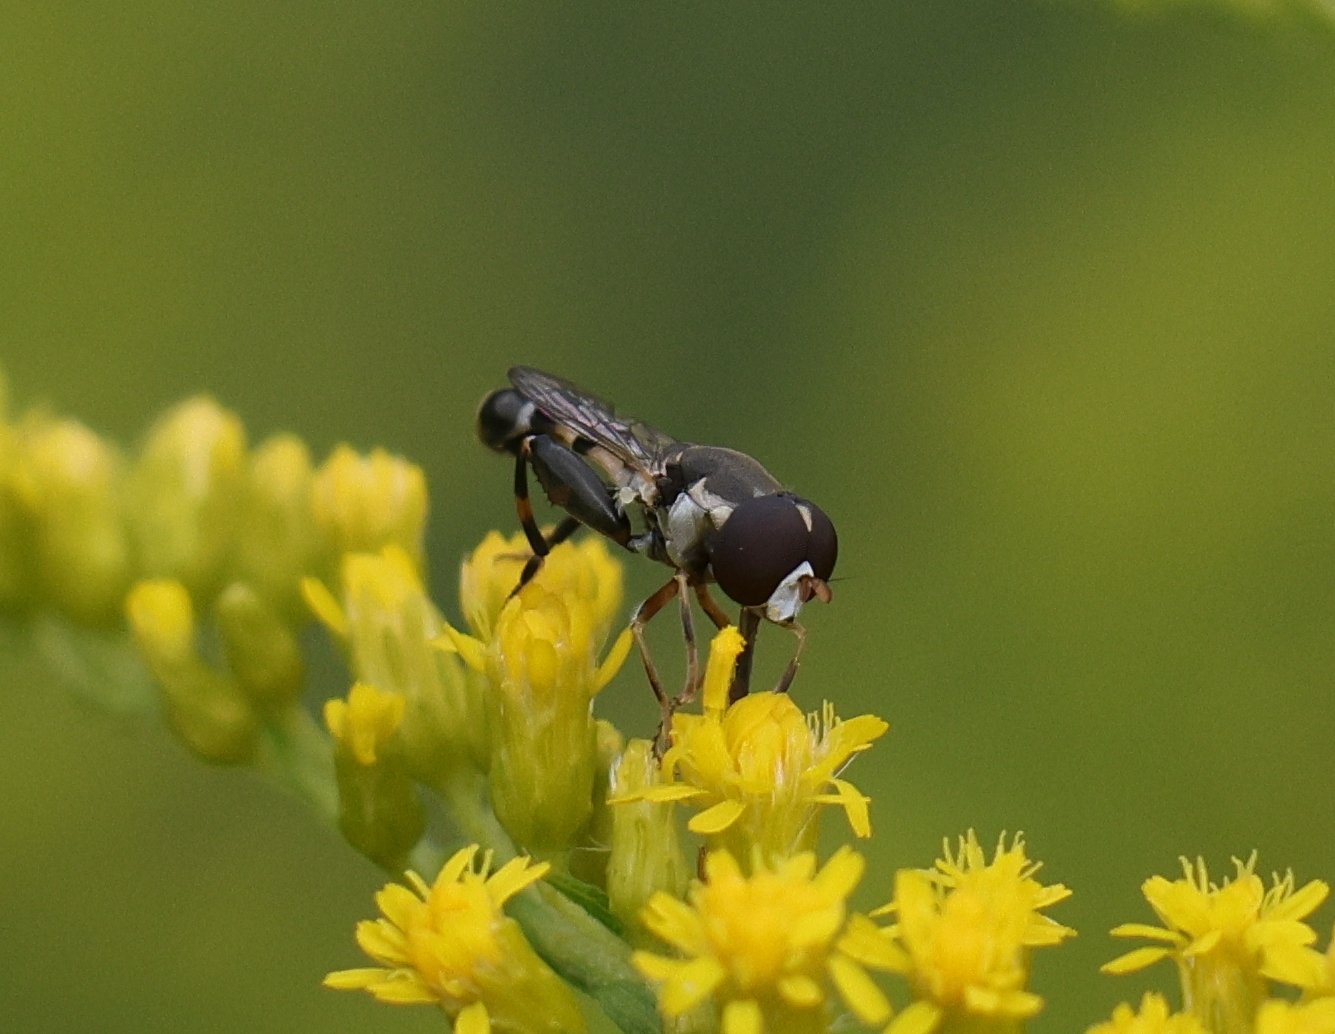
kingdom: Animalia
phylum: Arthropoda
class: Insecta
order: Diptera
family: Syrphidae
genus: Syritta
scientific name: Syritta pipiens
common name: Hover fly
